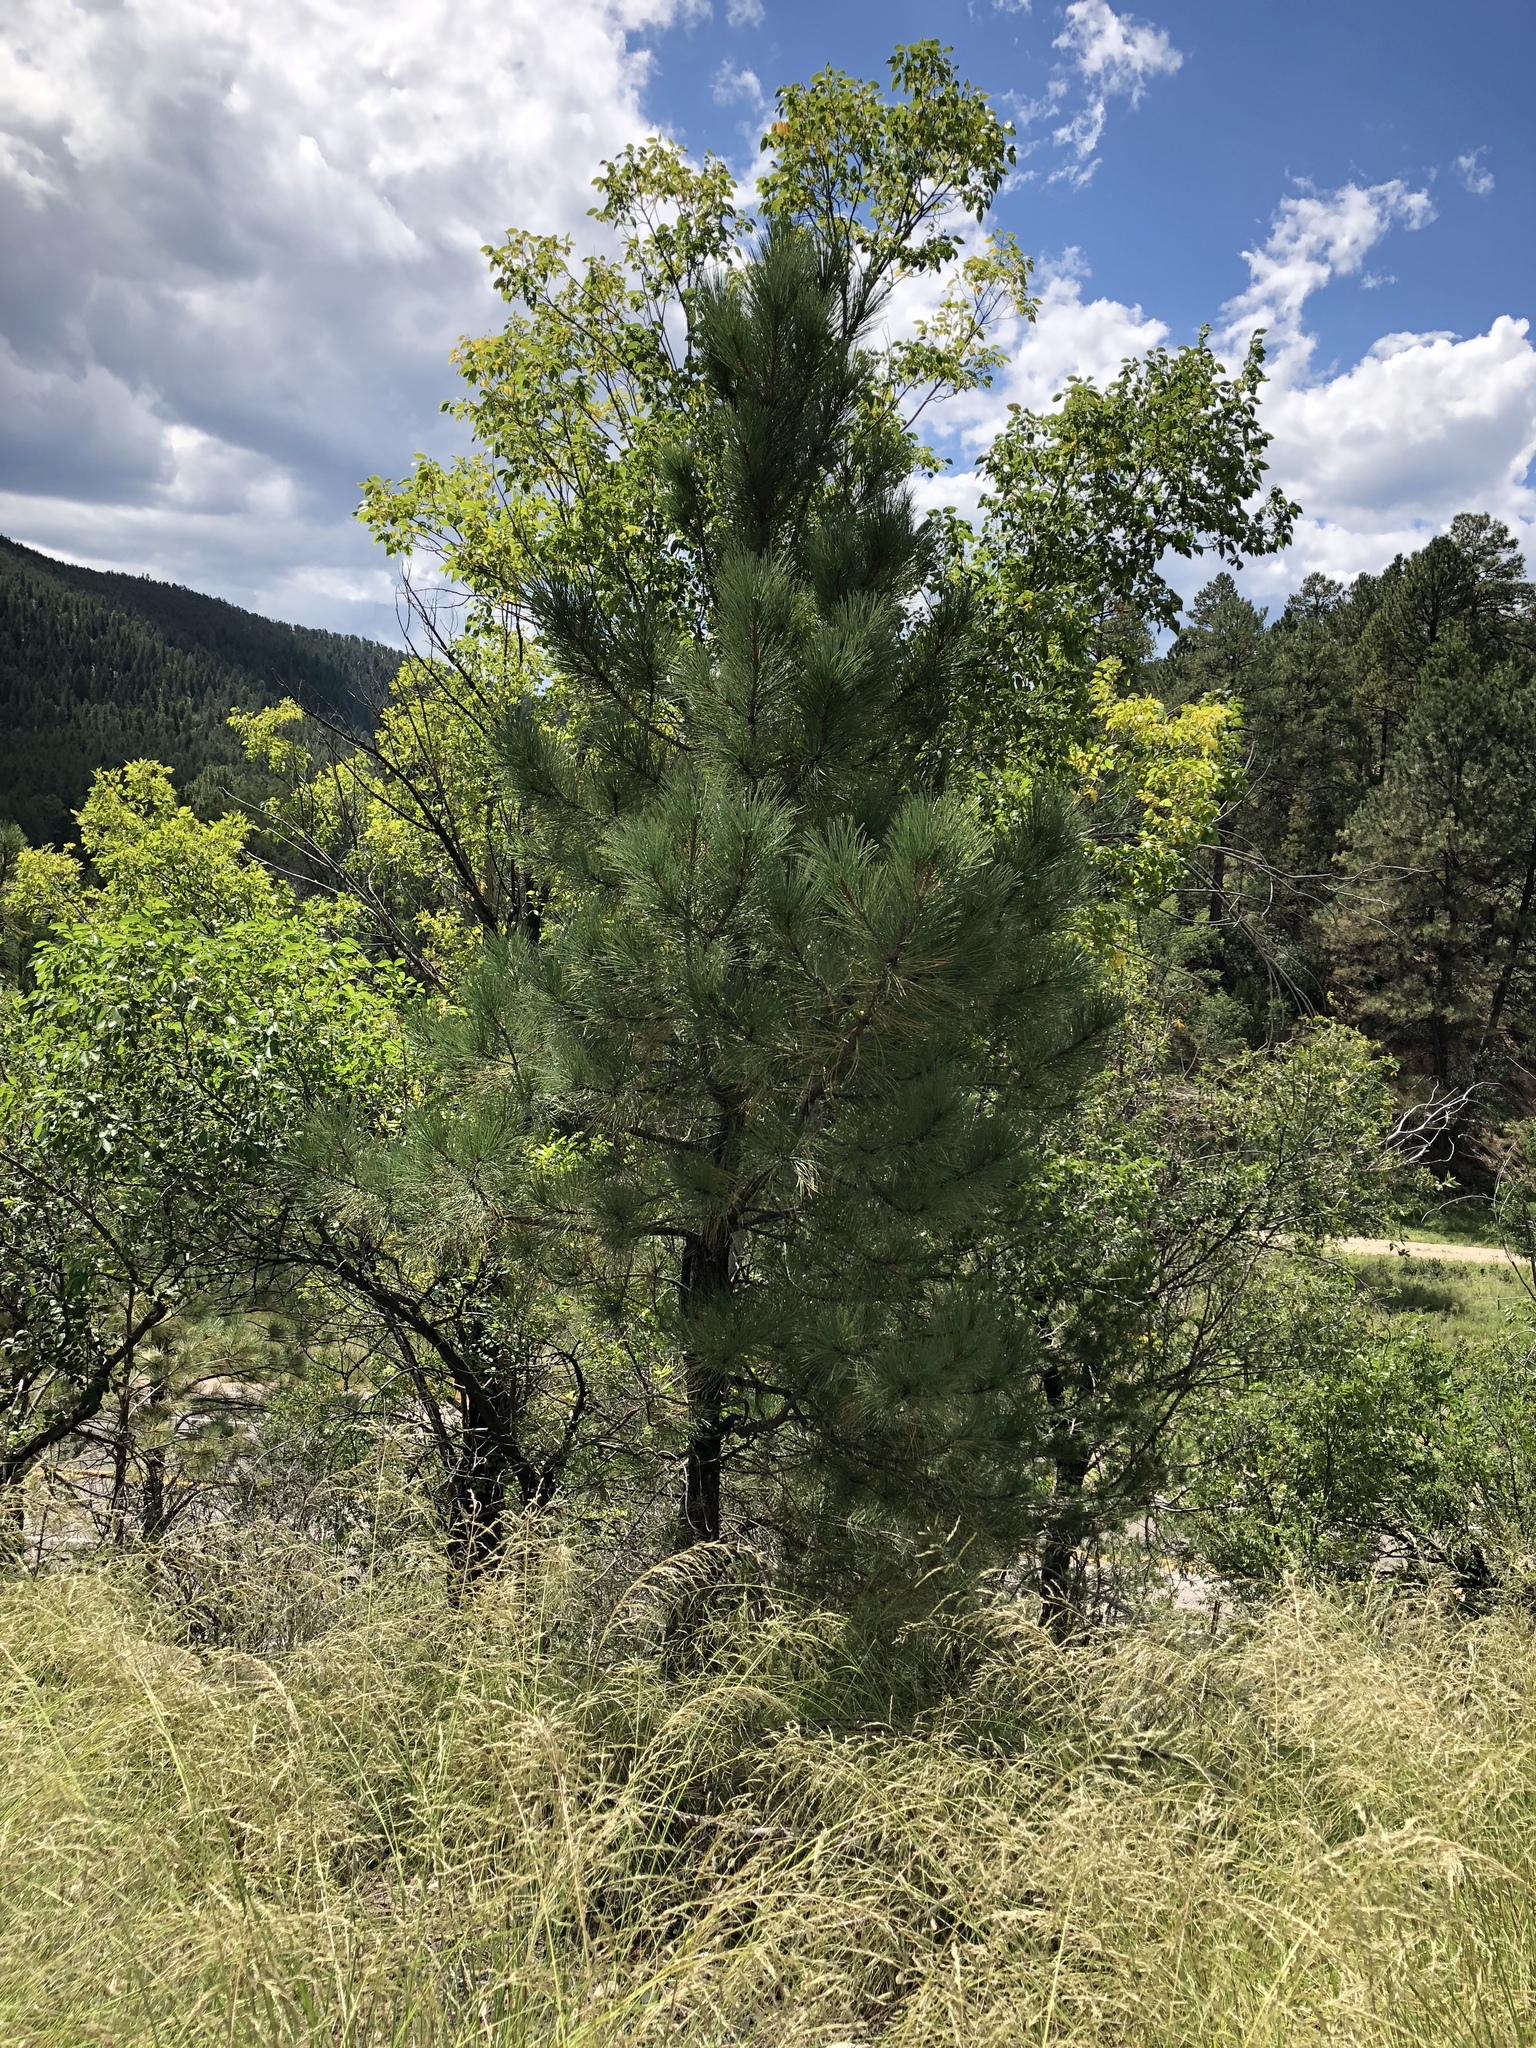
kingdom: Plantae
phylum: Tracheophyta
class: Pinopsida
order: Pinales
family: Pinaceae
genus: Pinus
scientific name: Pinus ponderosa
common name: Western yellow-pine
